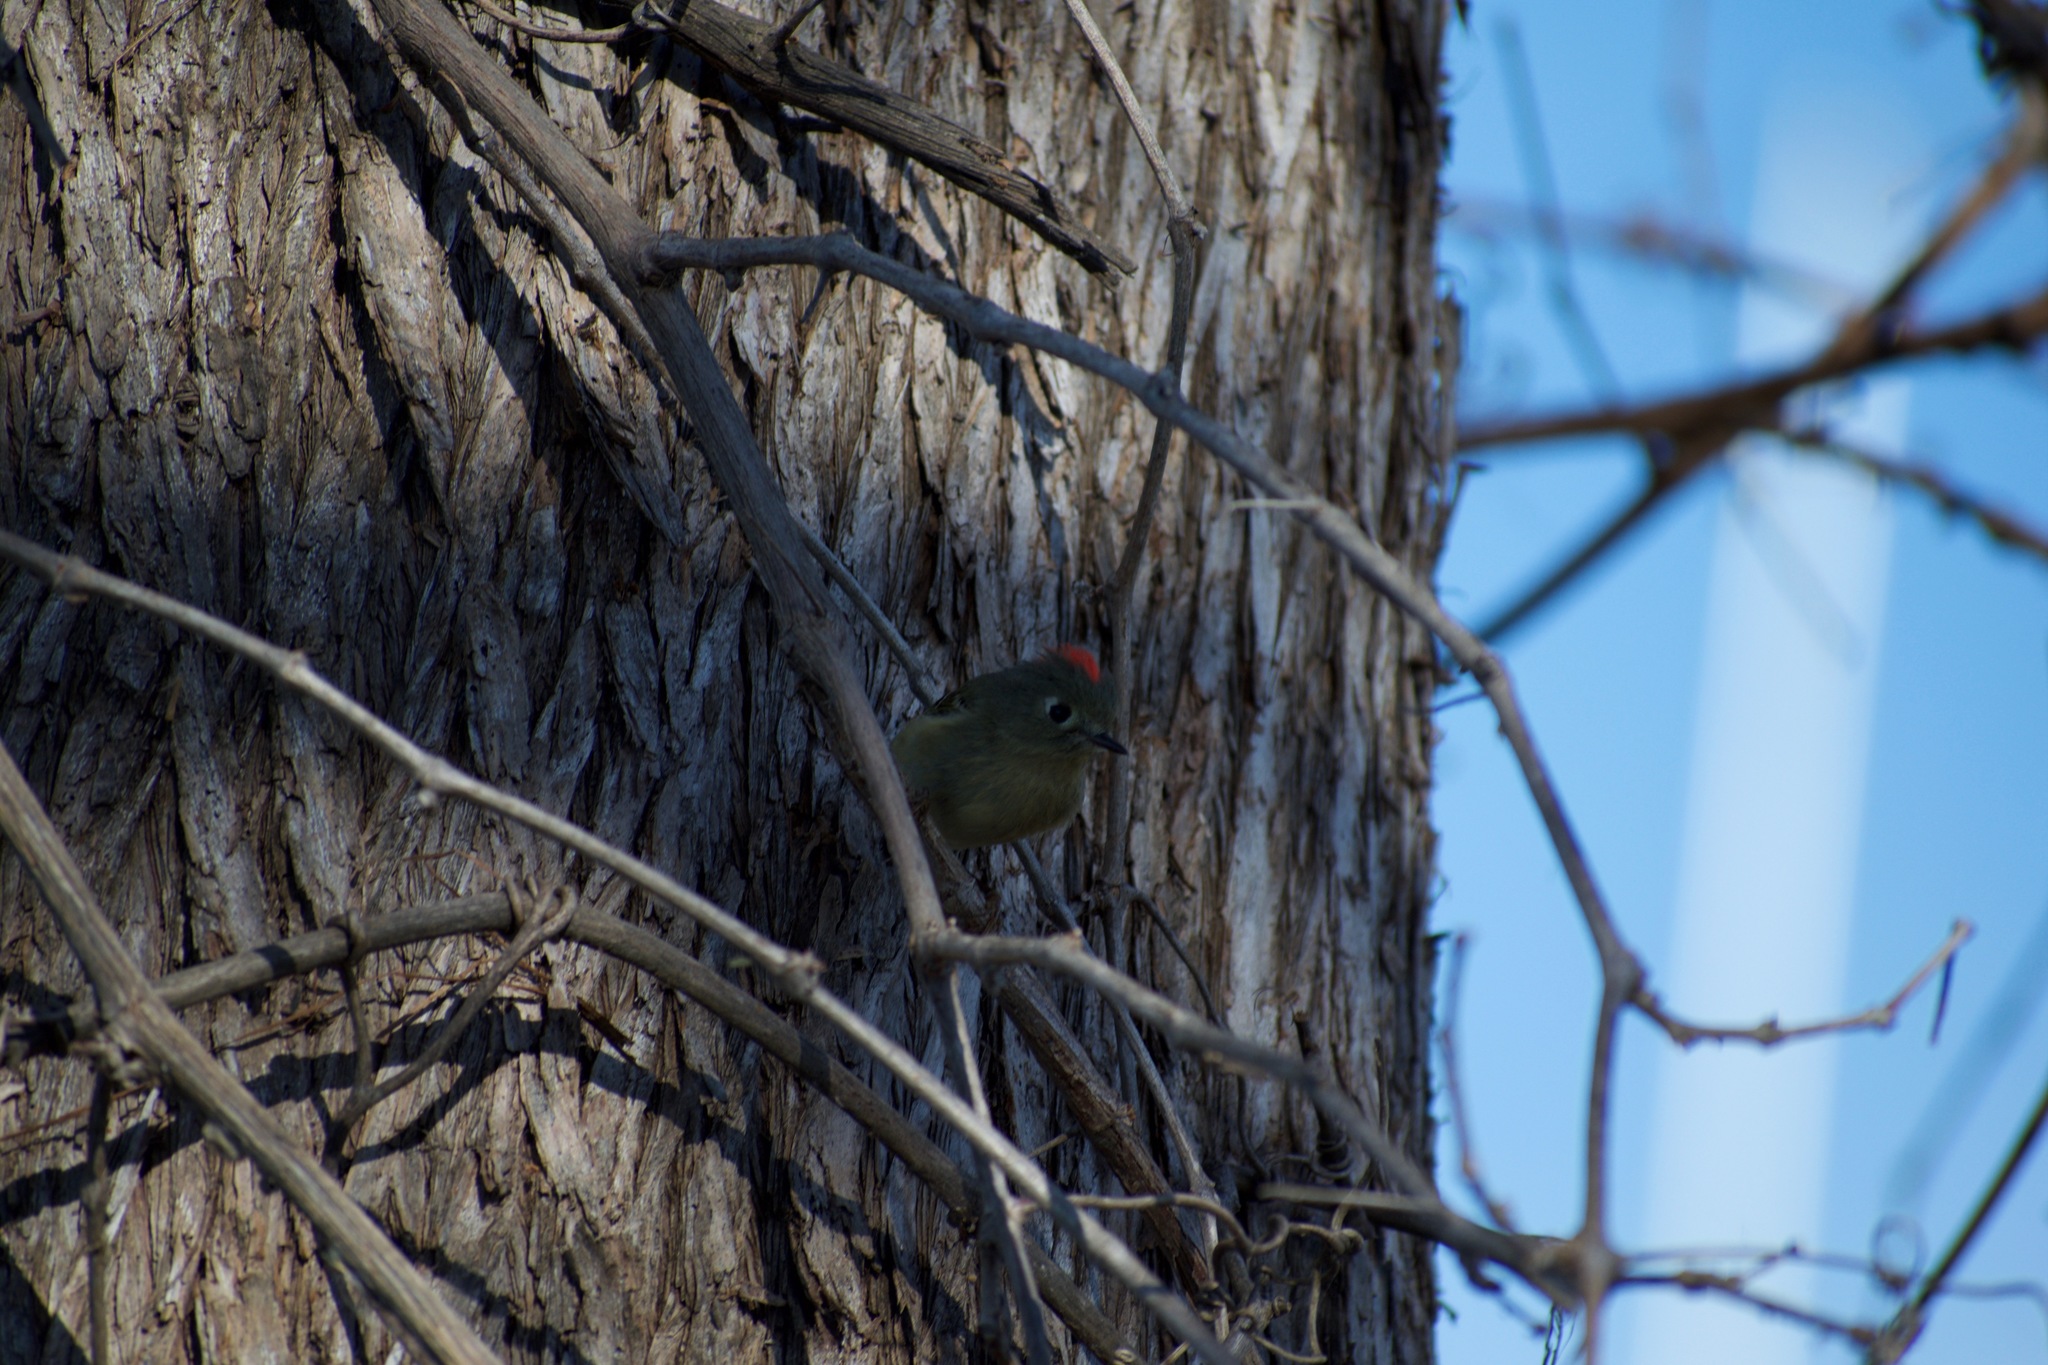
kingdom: Animalia
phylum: Chordata
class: Aves
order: Passeriformes
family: Regulidae
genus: Regulus
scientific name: Regulus calendula
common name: Ruby-crowned kinglet
